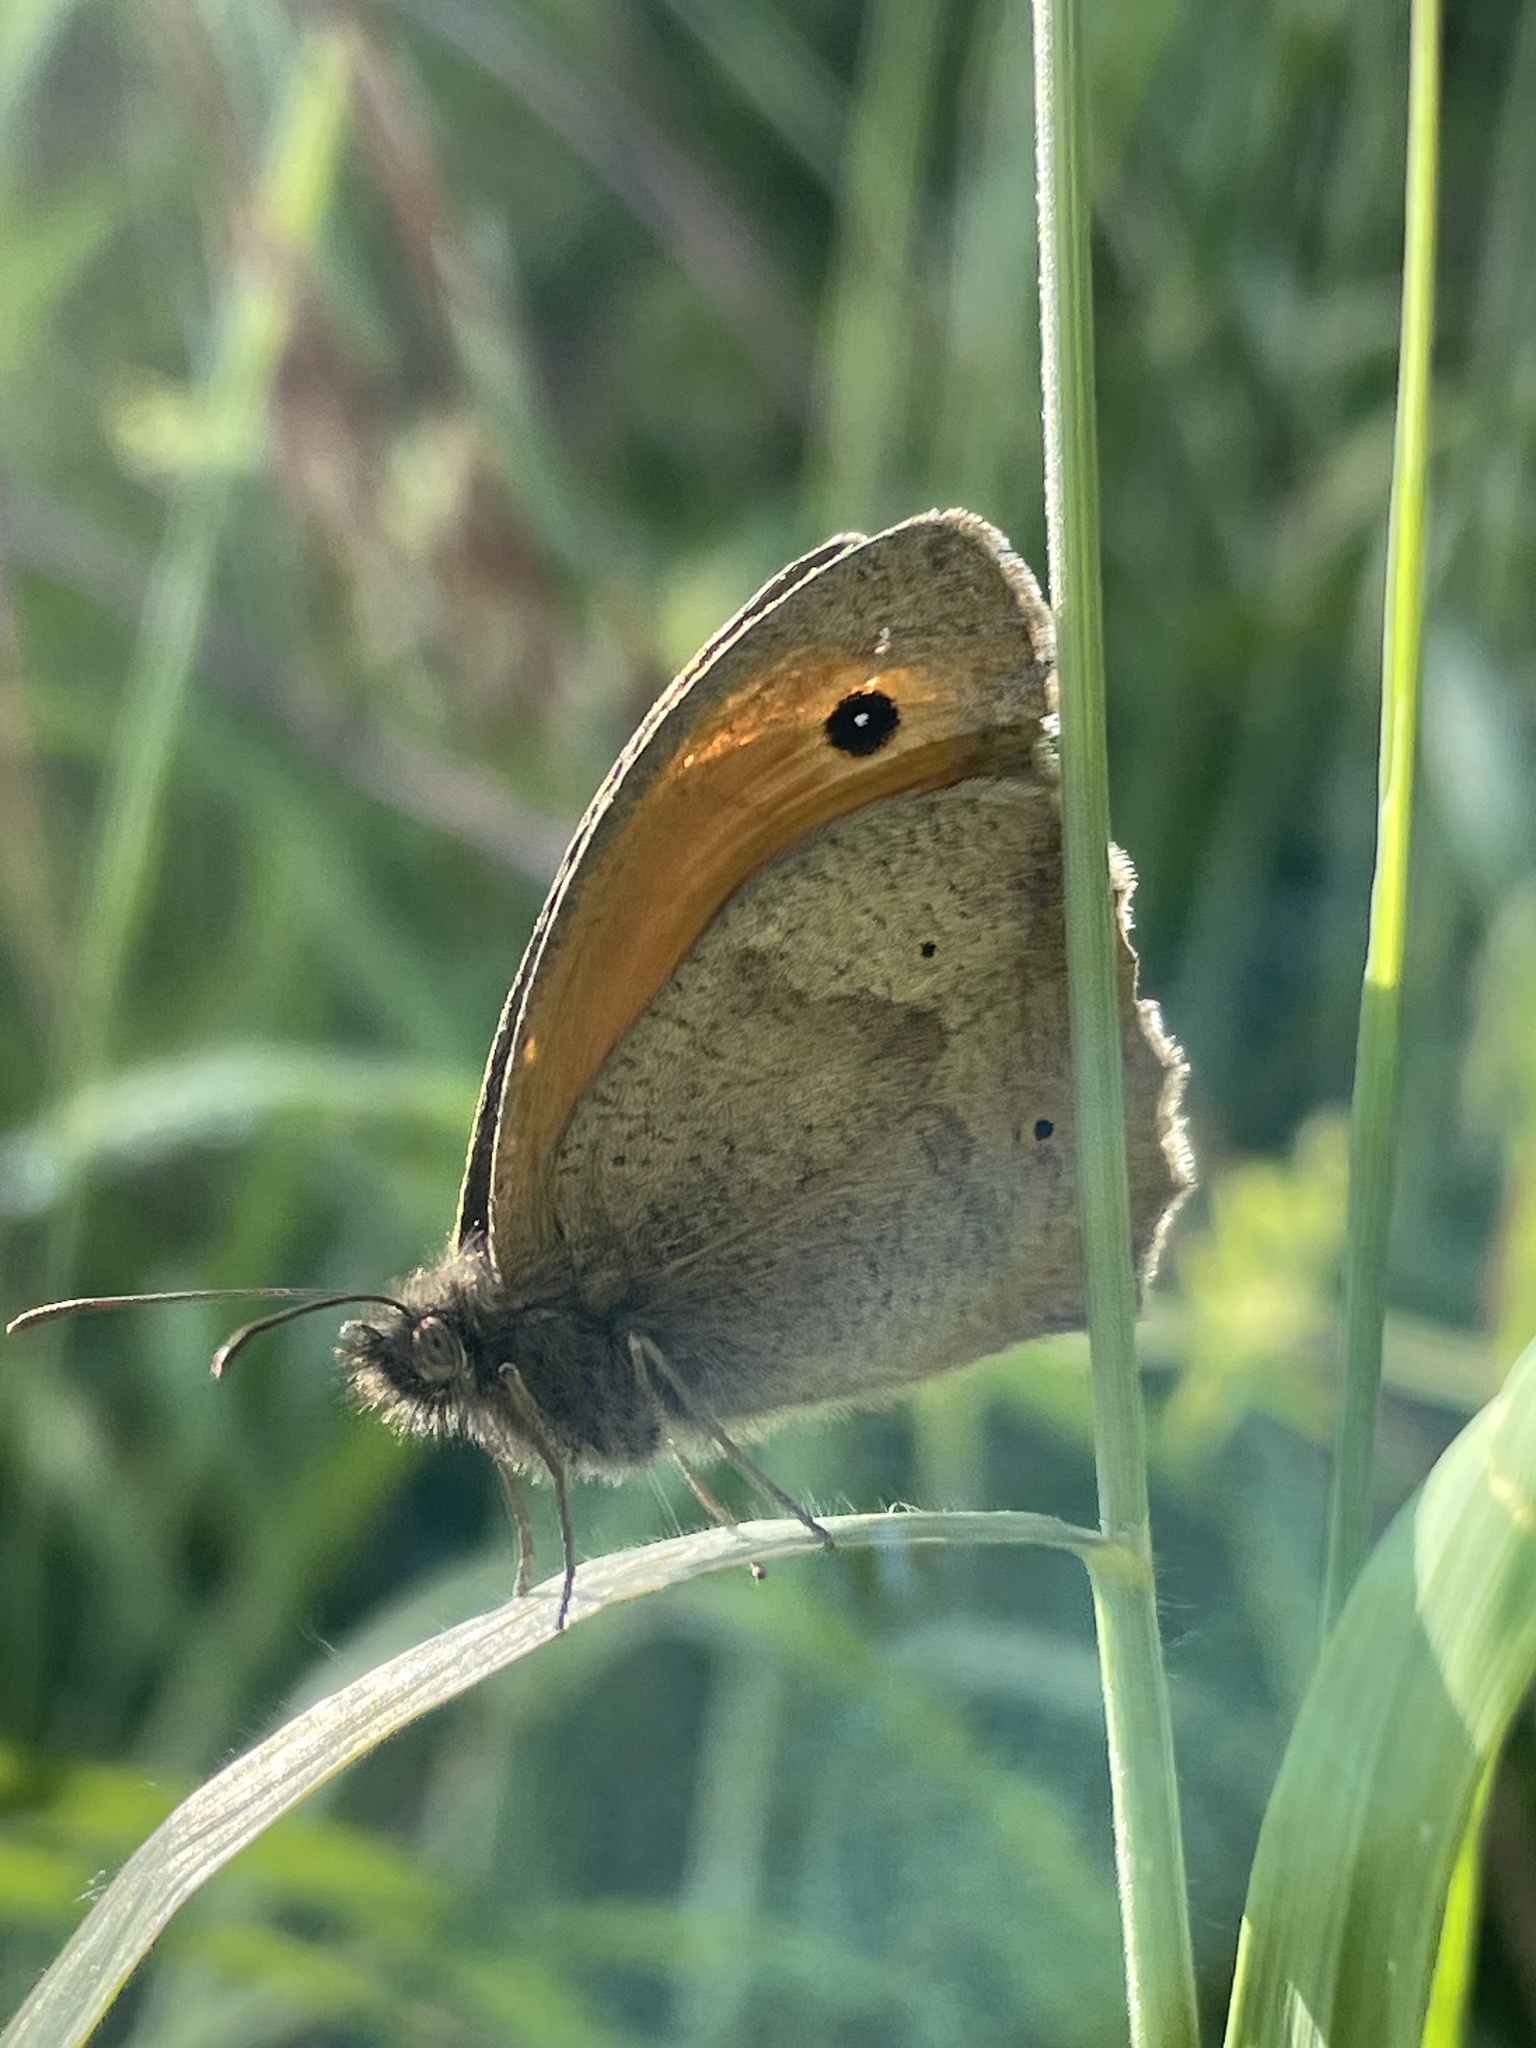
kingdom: Animalia
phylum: Arthropoda
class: Insecta
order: Lepidoptera
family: Nymphalidae
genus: Maniola
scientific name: Maniola jurtina
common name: Meadow brown
